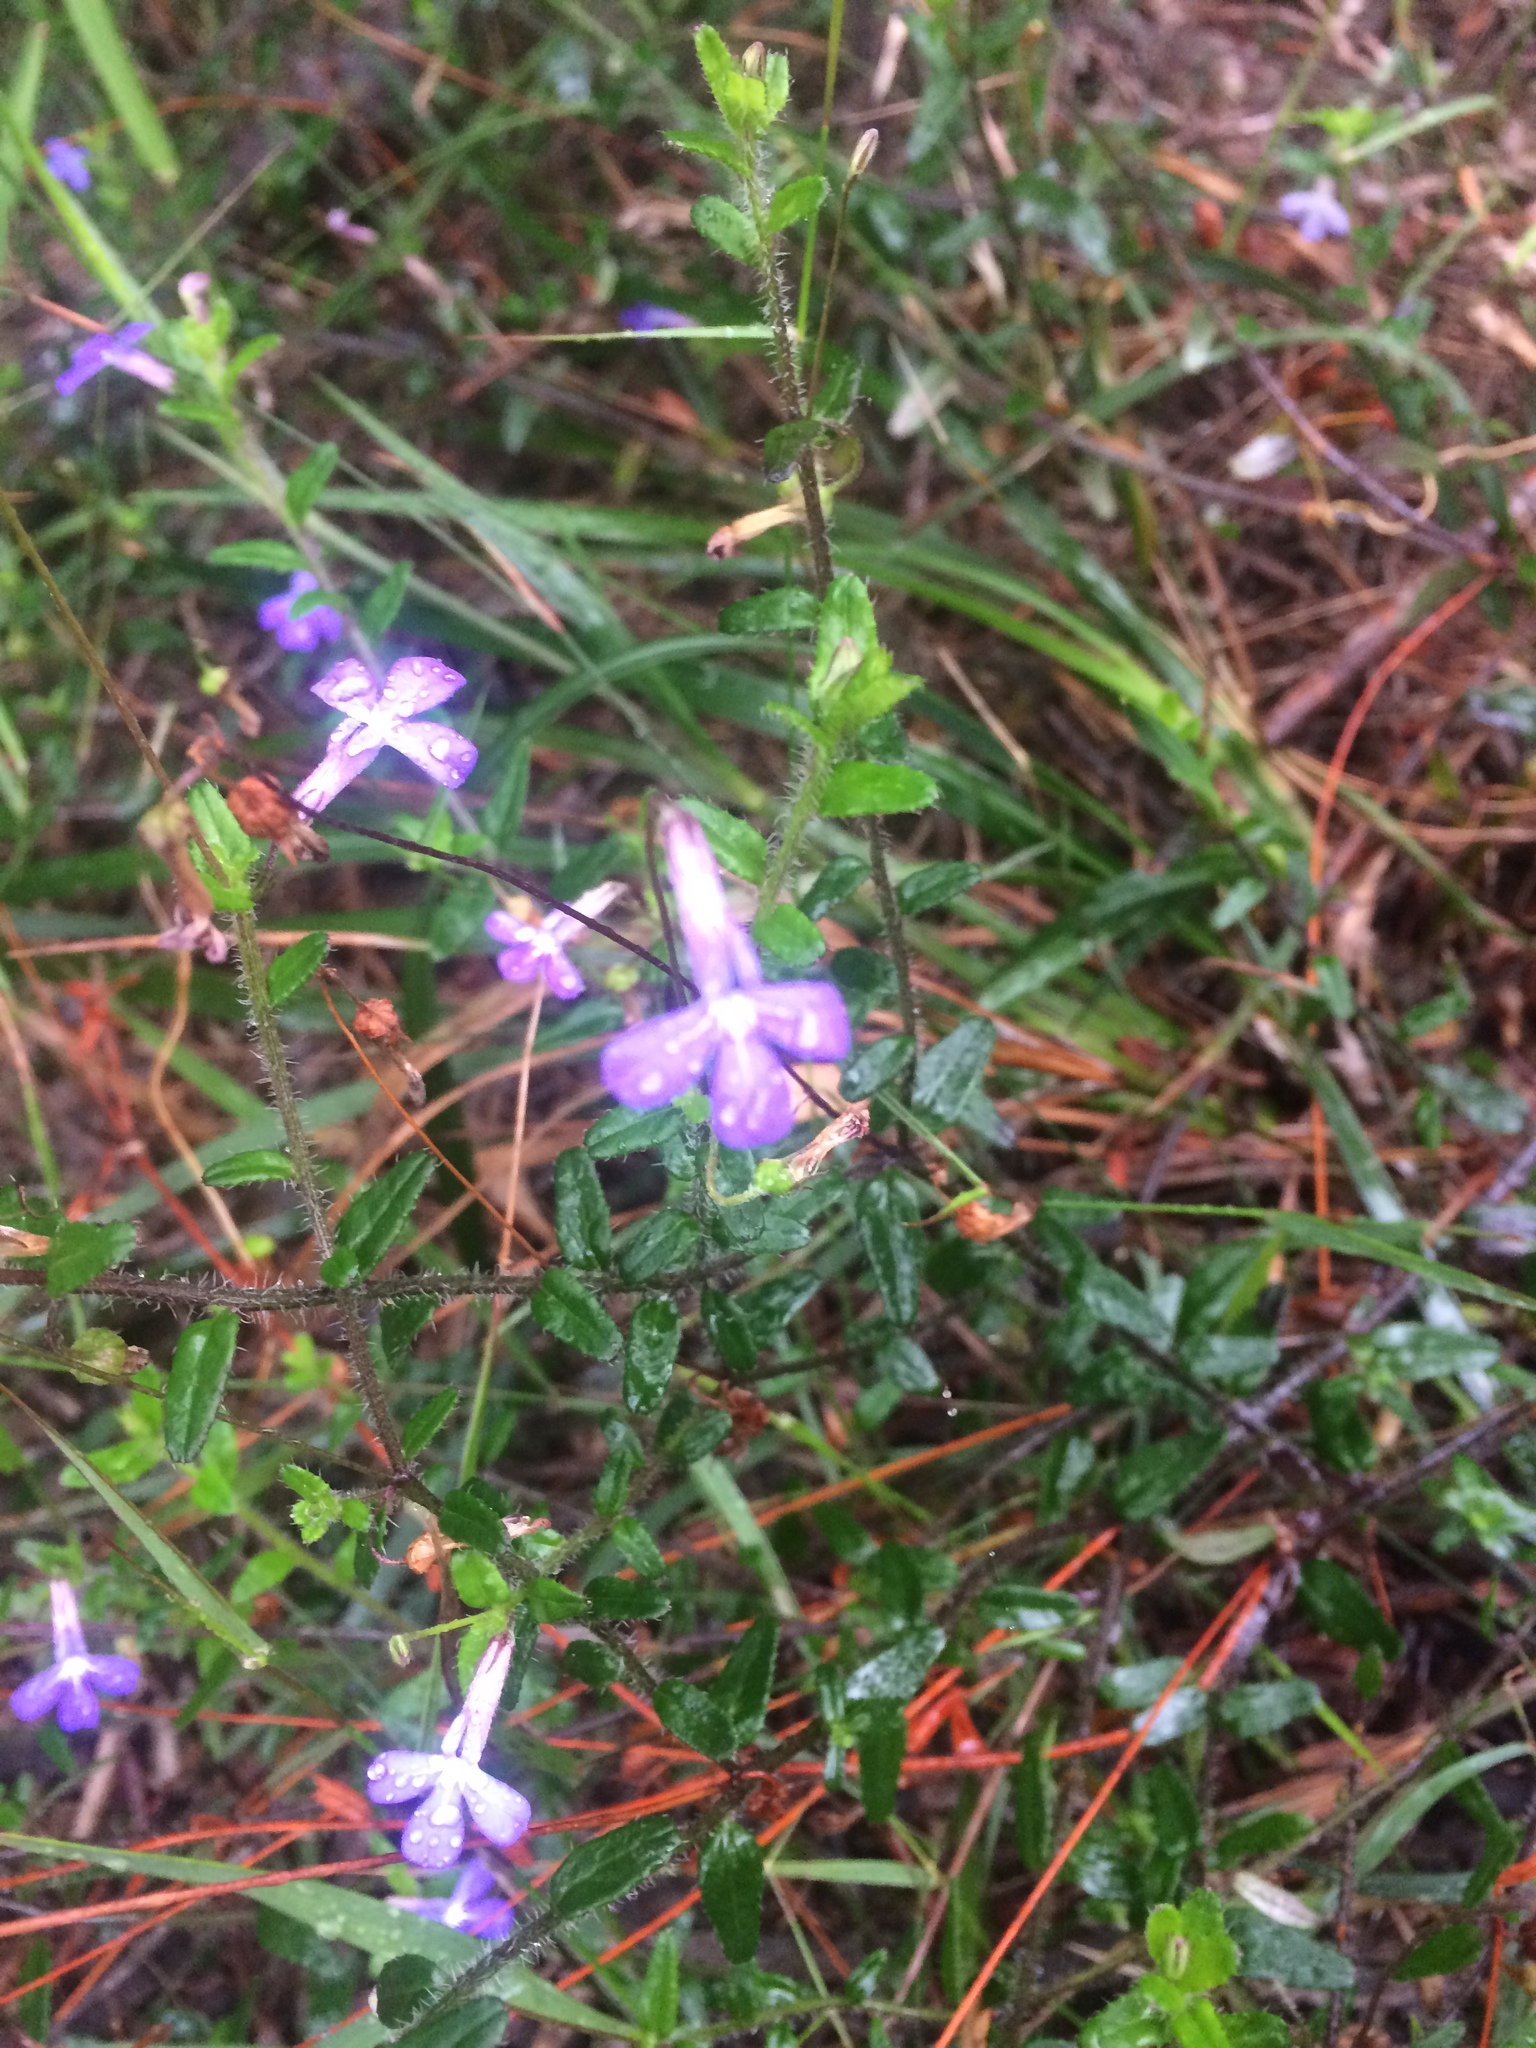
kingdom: Plantae
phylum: Tracheophyta
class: Magnoliopsida
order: Asterales
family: Campanulaceae
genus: Lobelia
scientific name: Lobelia neglecta
